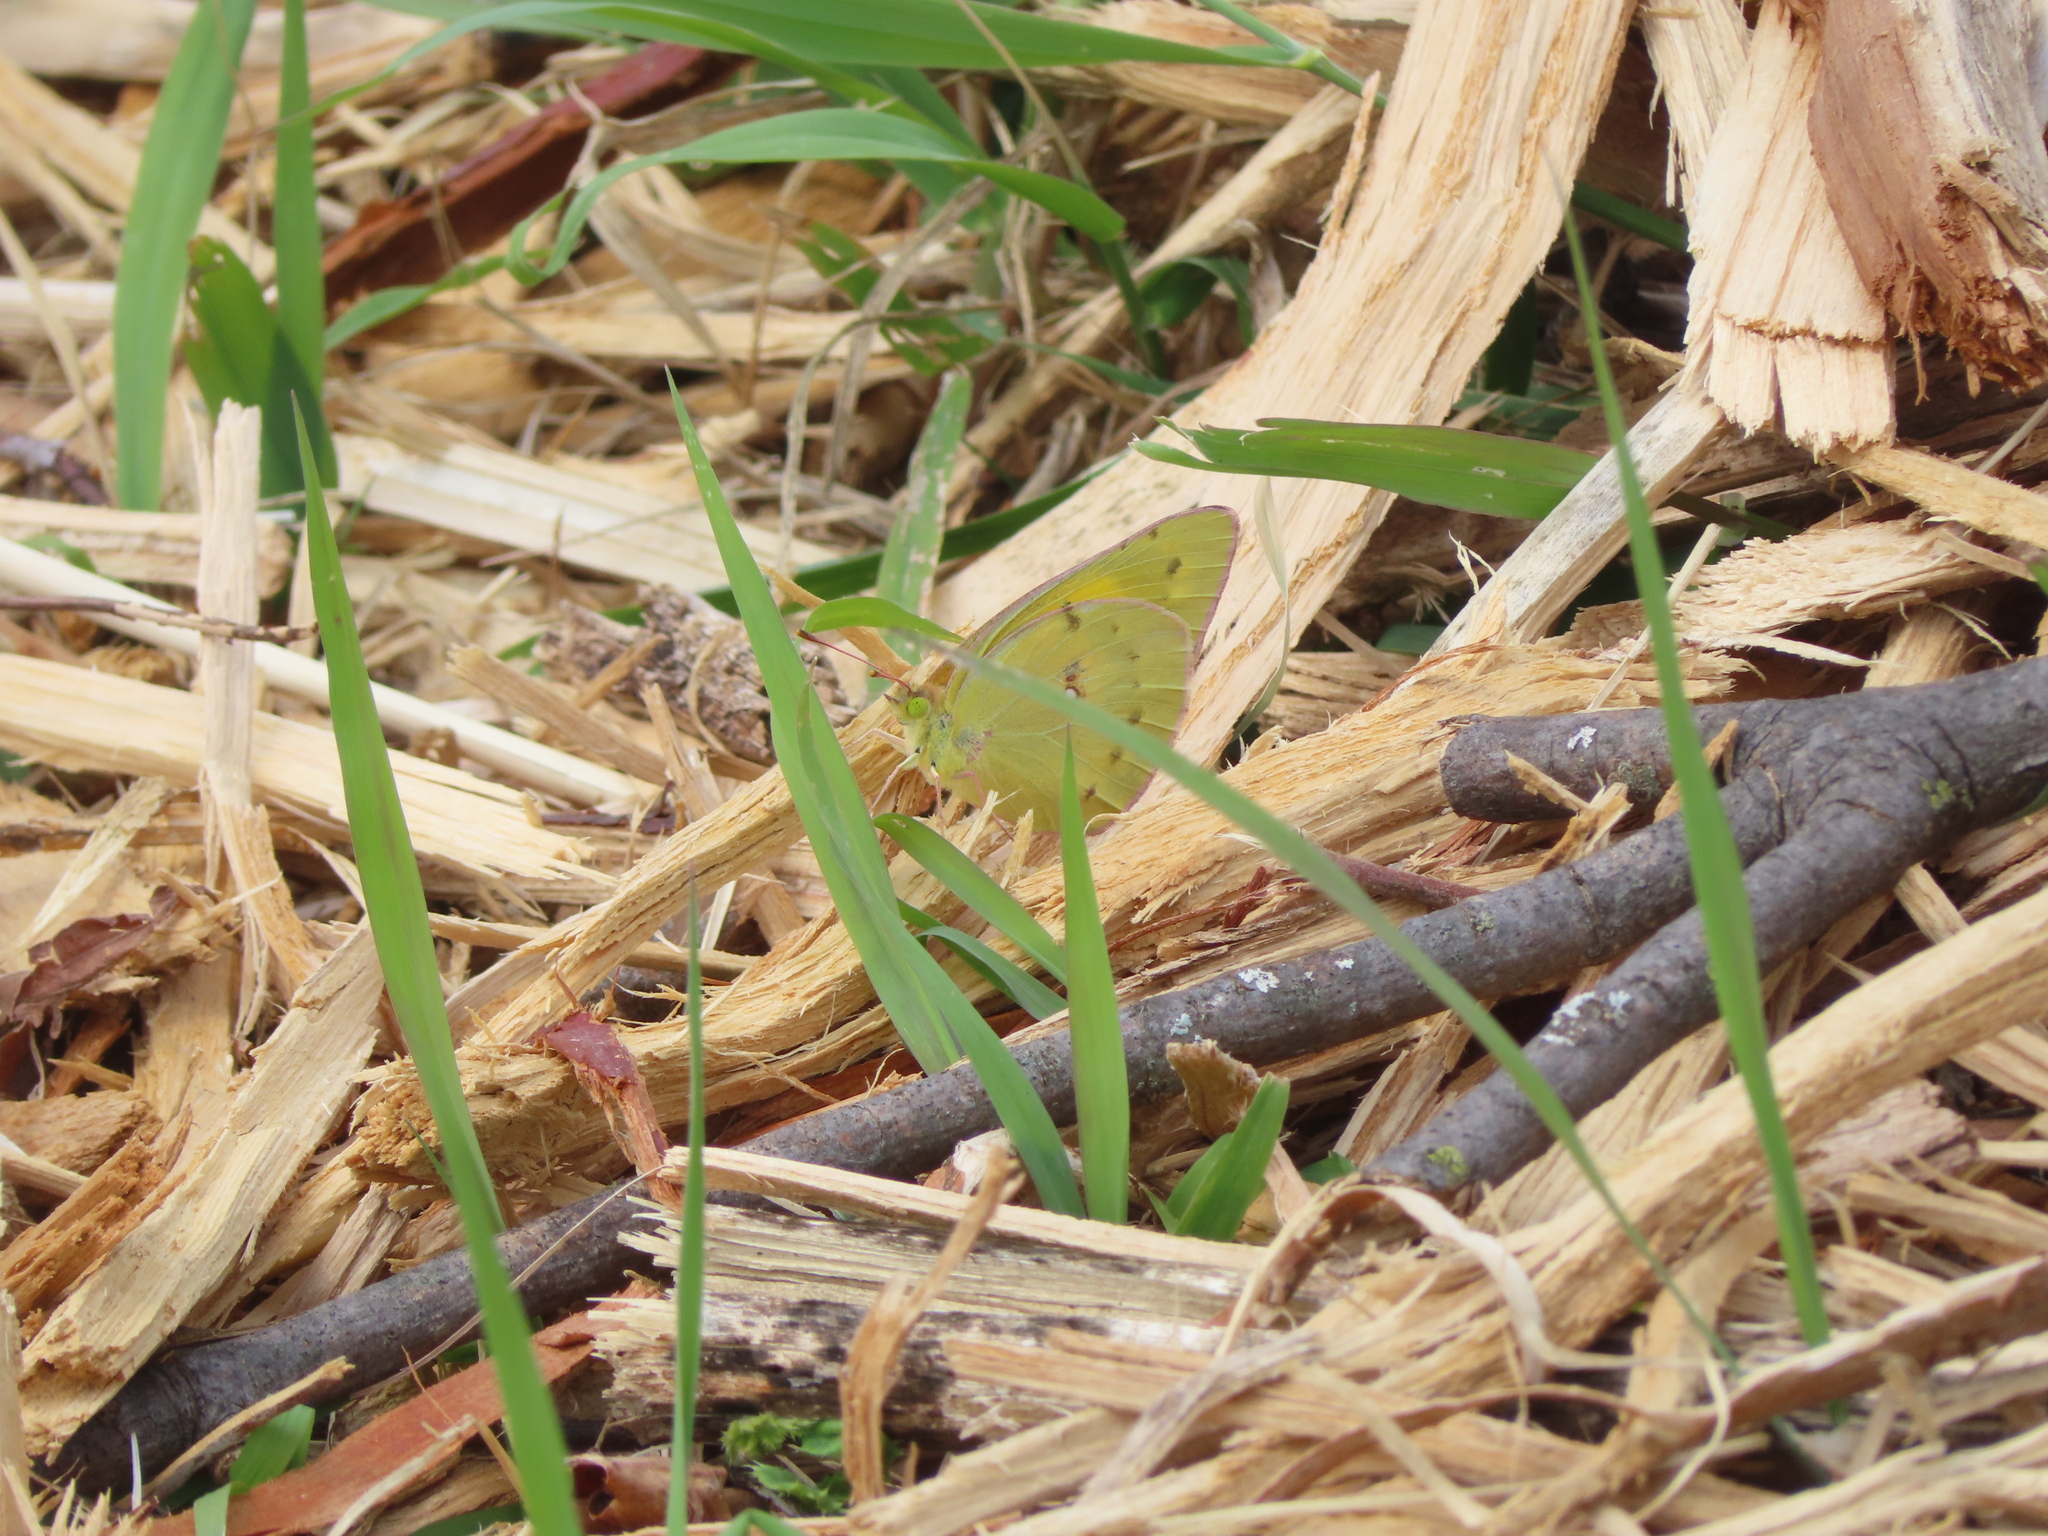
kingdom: Animalia
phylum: Arthropoda
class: Insecta
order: Lepidoptera
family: Pieridae
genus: Colias
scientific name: Colias eurytheme
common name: Alfalfa butterfly
